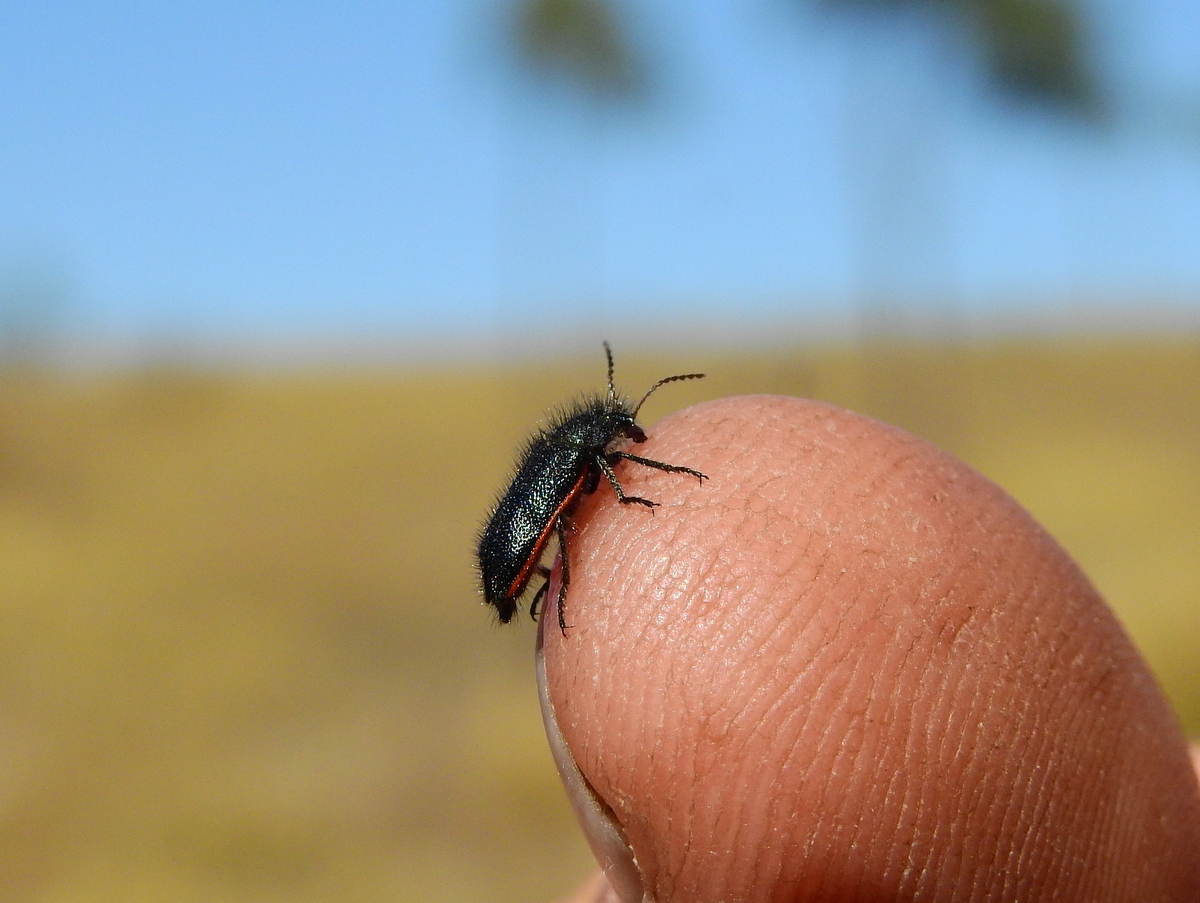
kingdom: Animalia
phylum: Arthropoda
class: Insecta
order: Coleoptera
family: Melyridae
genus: Astylus
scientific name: Astylus
